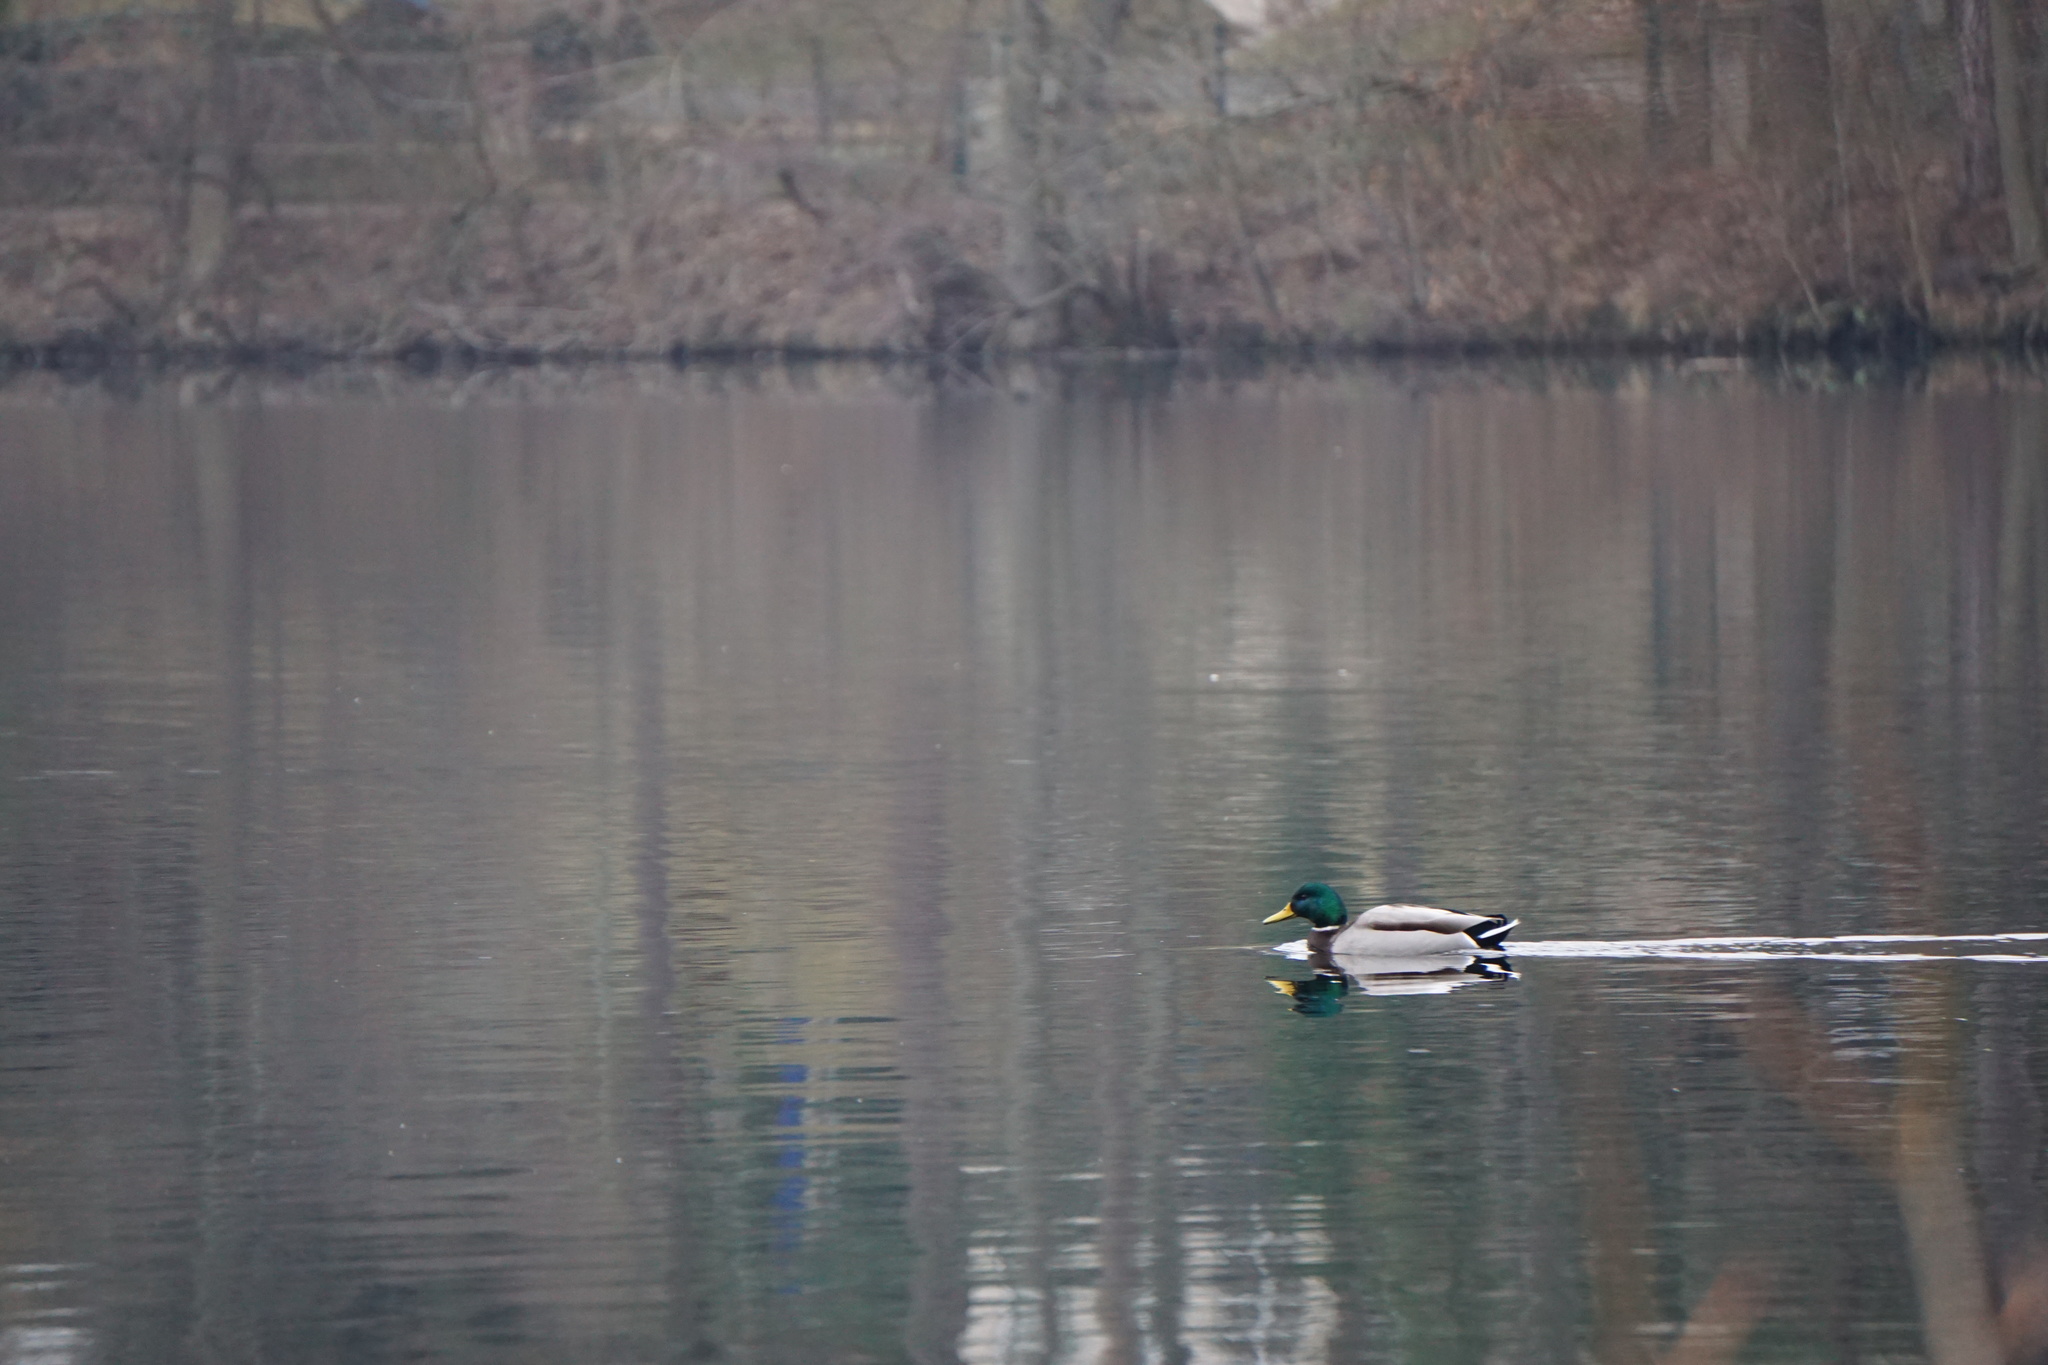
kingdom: Animalia
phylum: Chordata
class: Aves
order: Anseriformes
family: Anatidae
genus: Anas
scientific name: Anas platyrhynchos
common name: Mallard
